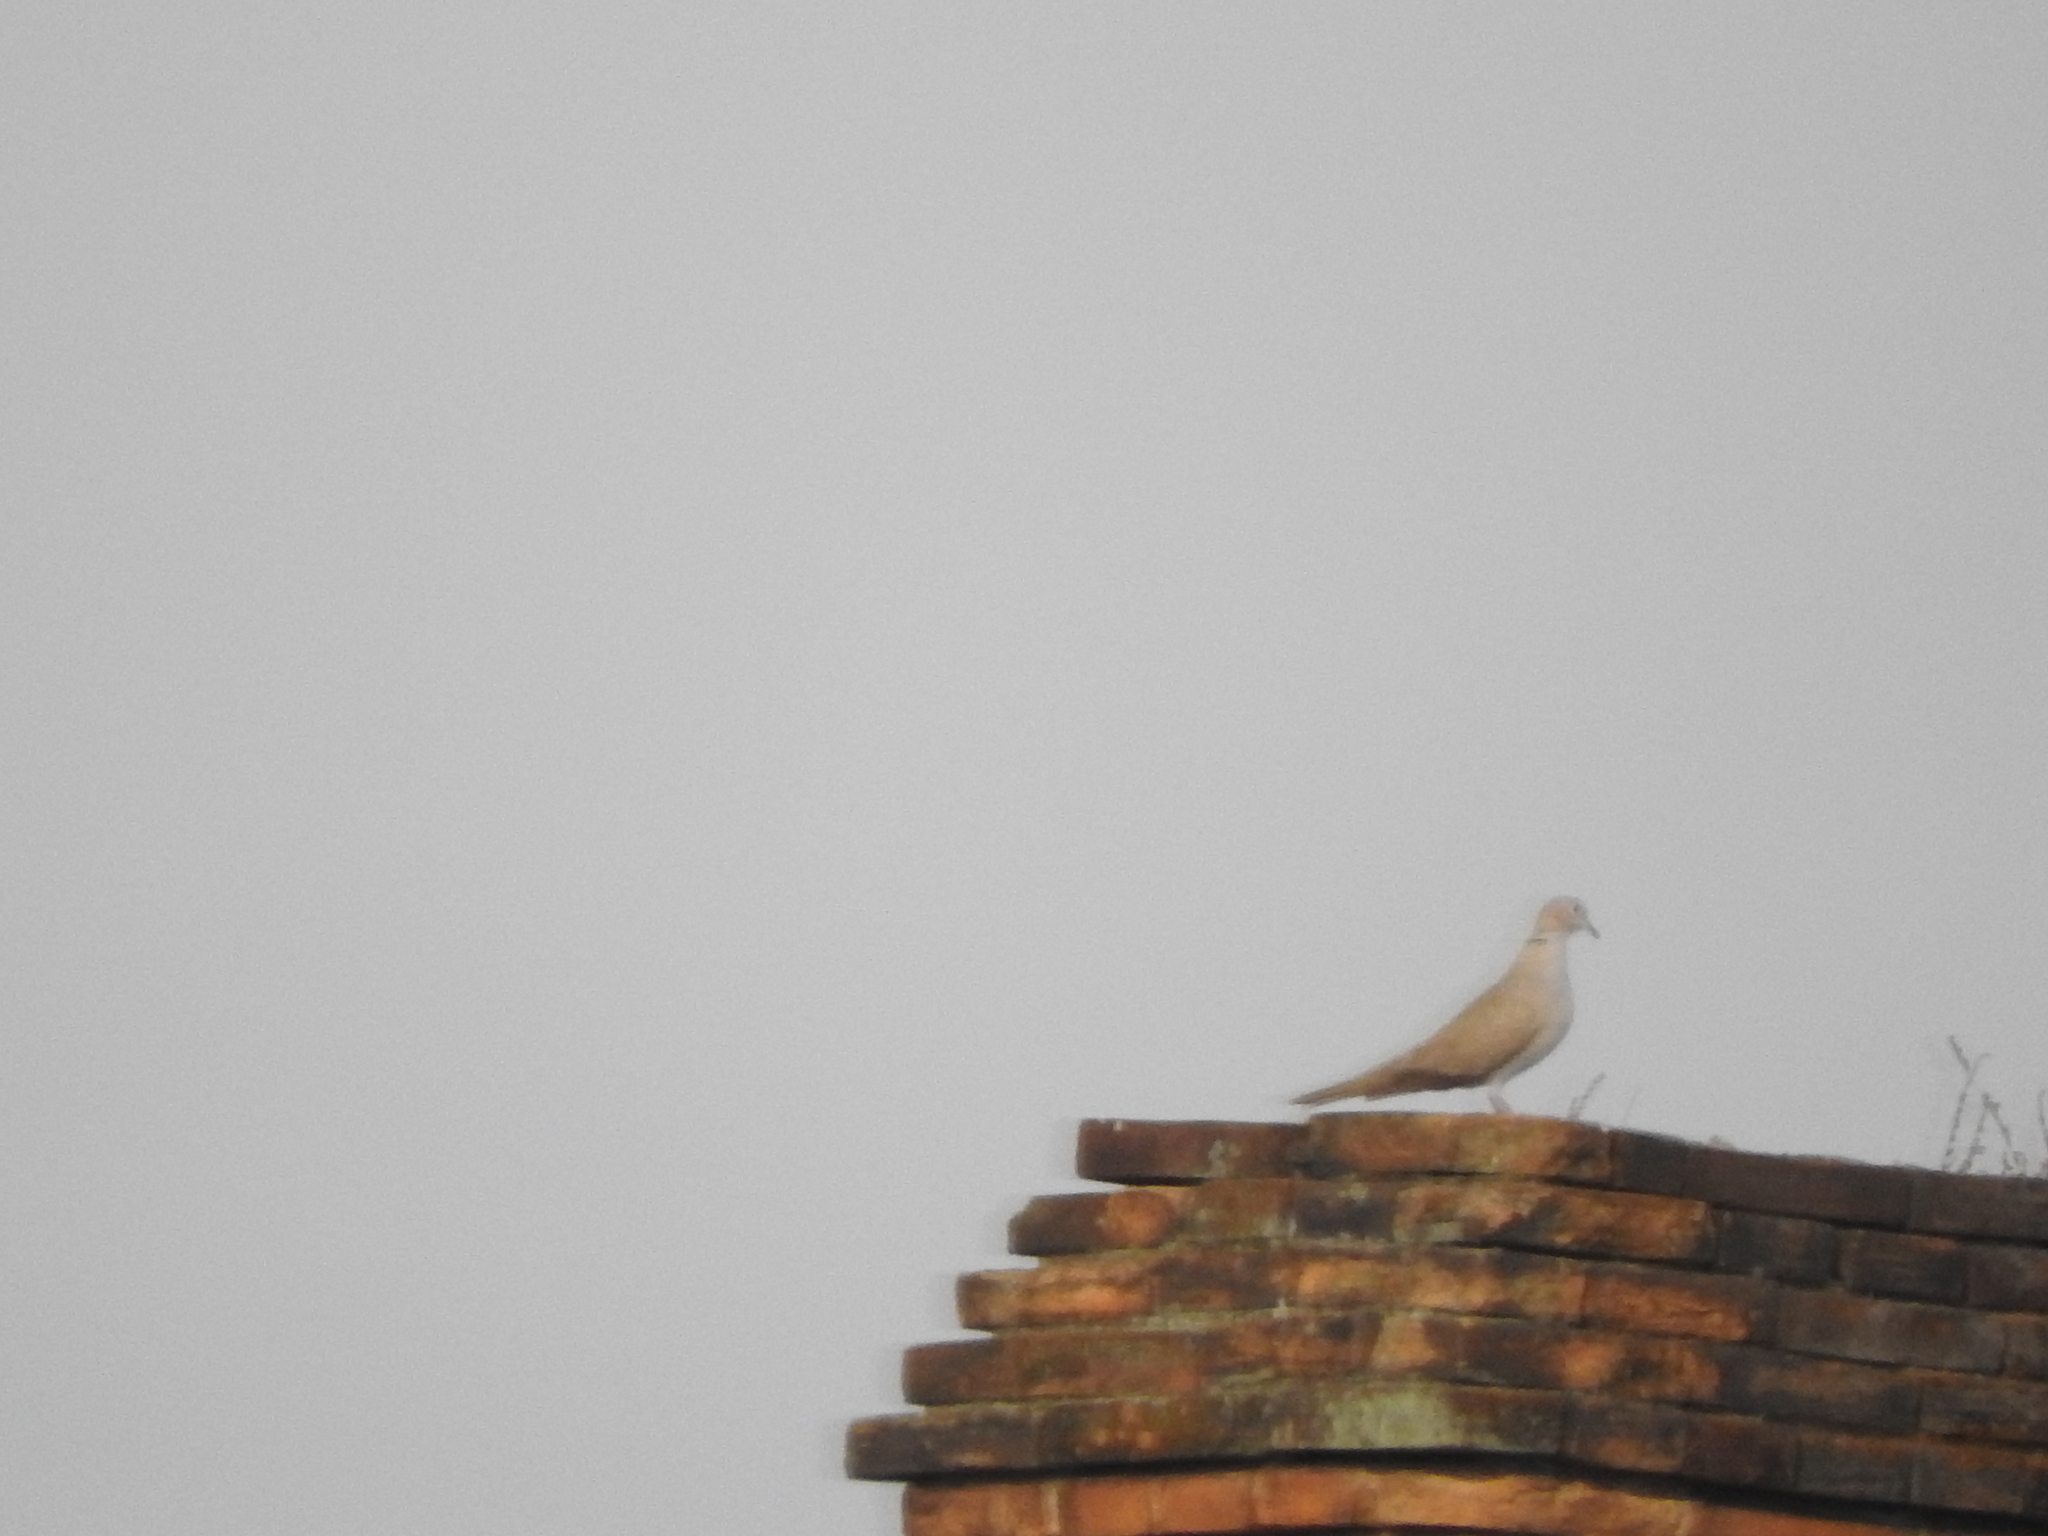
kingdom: Animalia
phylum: Chordata
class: Aves
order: Columbiformes
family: Columbidae
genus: Streptopelia
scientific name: Streptopelia decaocto
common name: Eurasian collared dove
